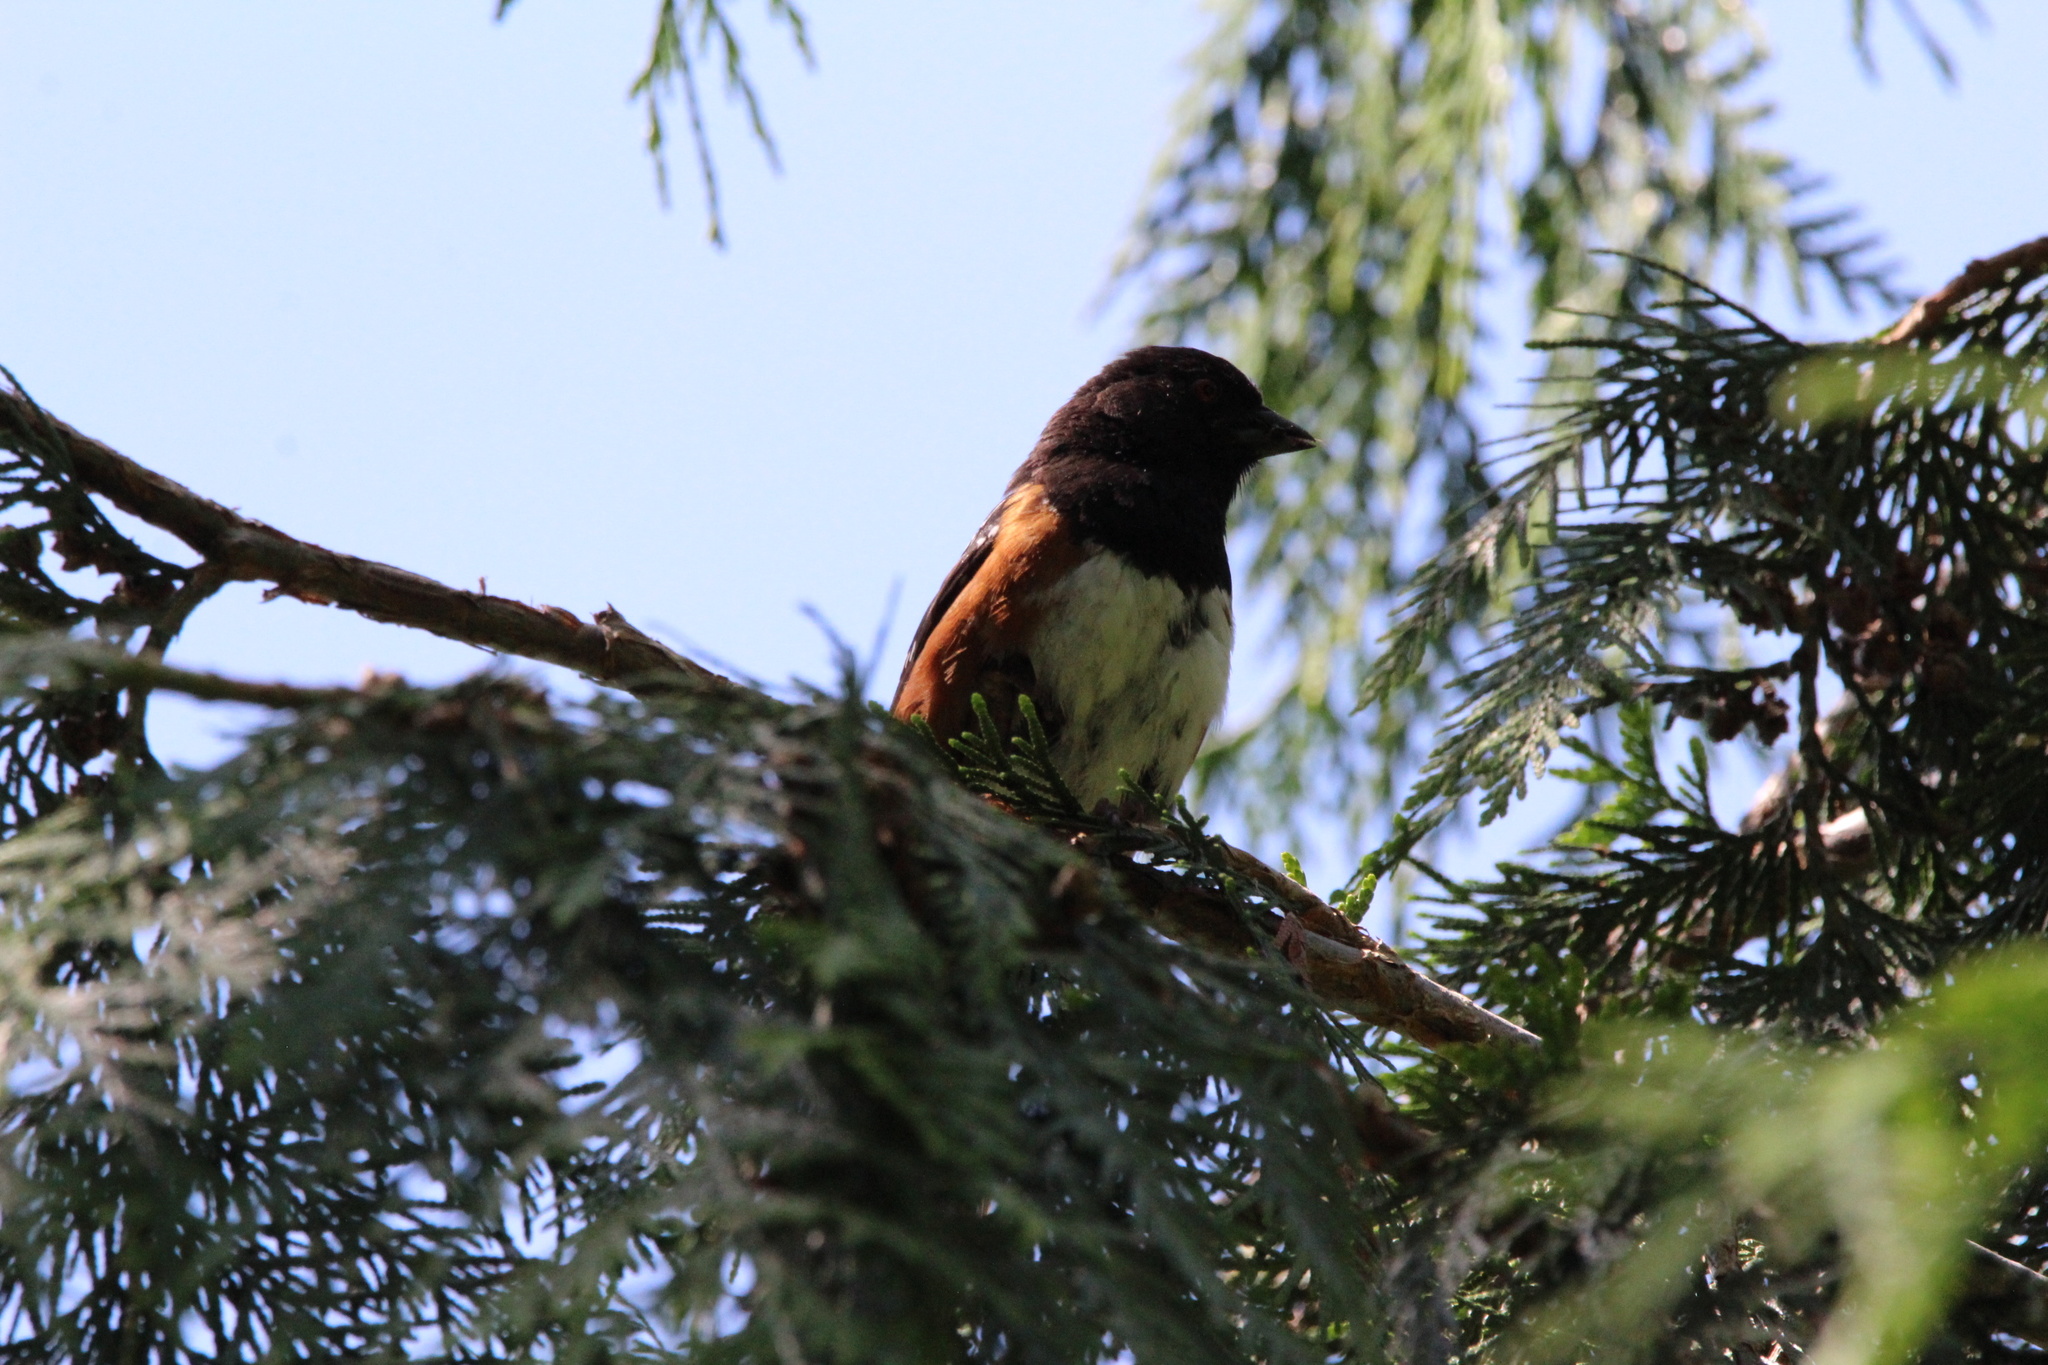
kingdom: Animalia
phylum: Chordata
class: Aves
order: Passeriformes
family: Passerellidae
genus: Pipilo
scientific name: Pipilo maculatus
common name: Spotted towhee
